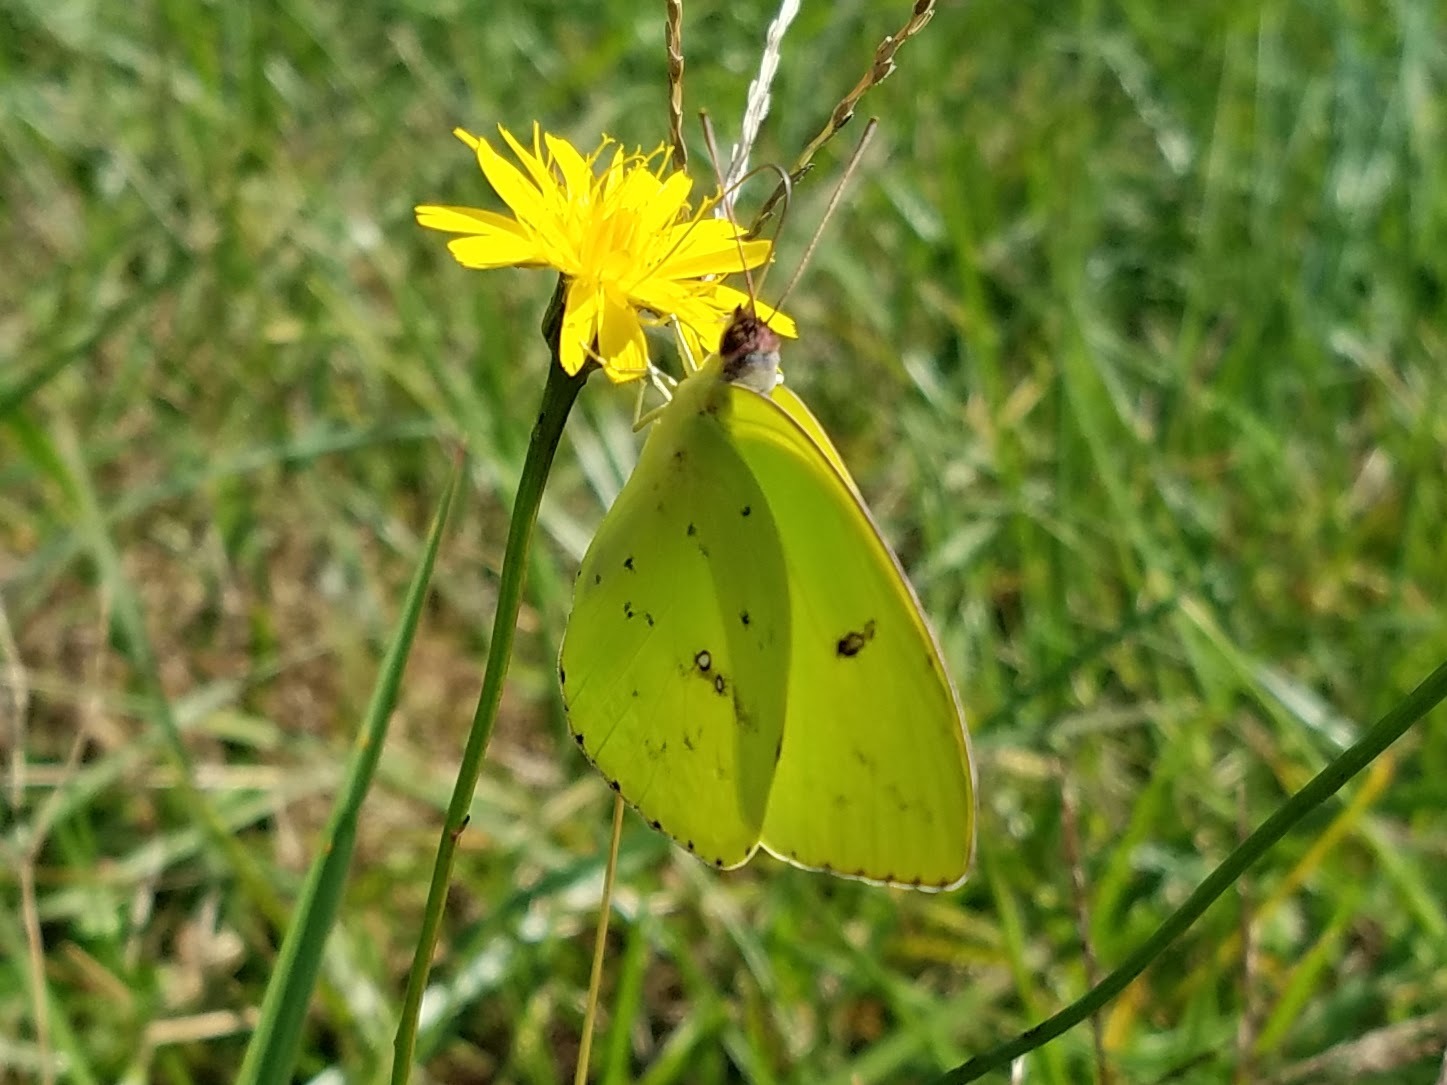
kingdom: Animalia
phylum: Arthropoda
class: Insecta
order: Lepidoptera
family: Pieridae
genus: Phoebis
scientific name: Phoebis sennae
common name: Cloudless sulphur
